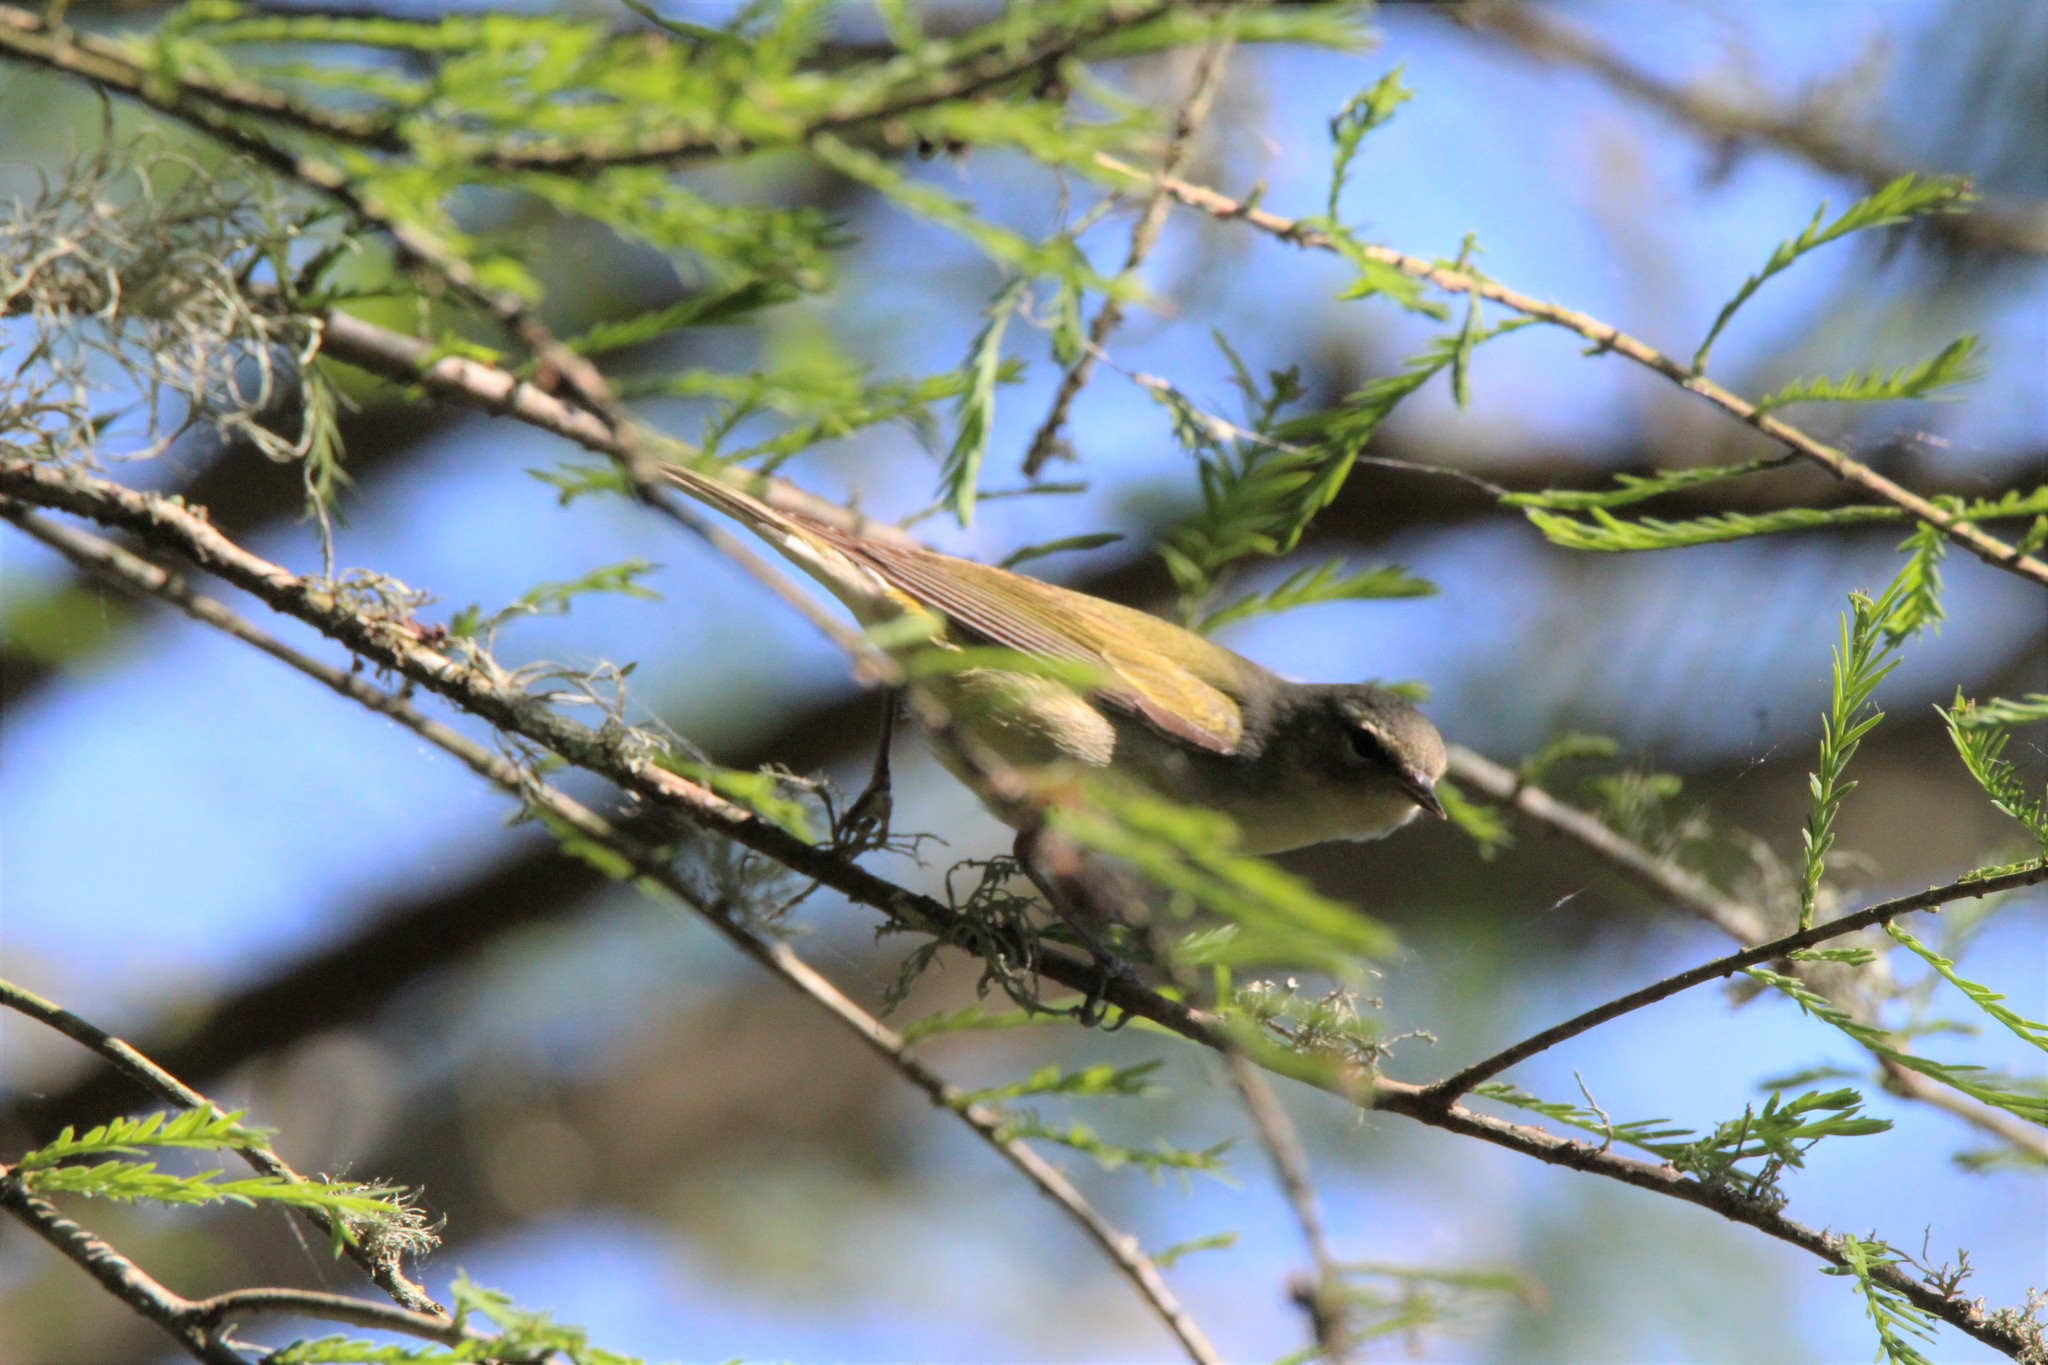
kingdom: Animalia
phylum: Chordata
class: Aves
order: Passeriformes
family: Parulidae
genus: Leiothlypis
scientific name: Leiothlypis peregrina
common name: Tennessee warbler
